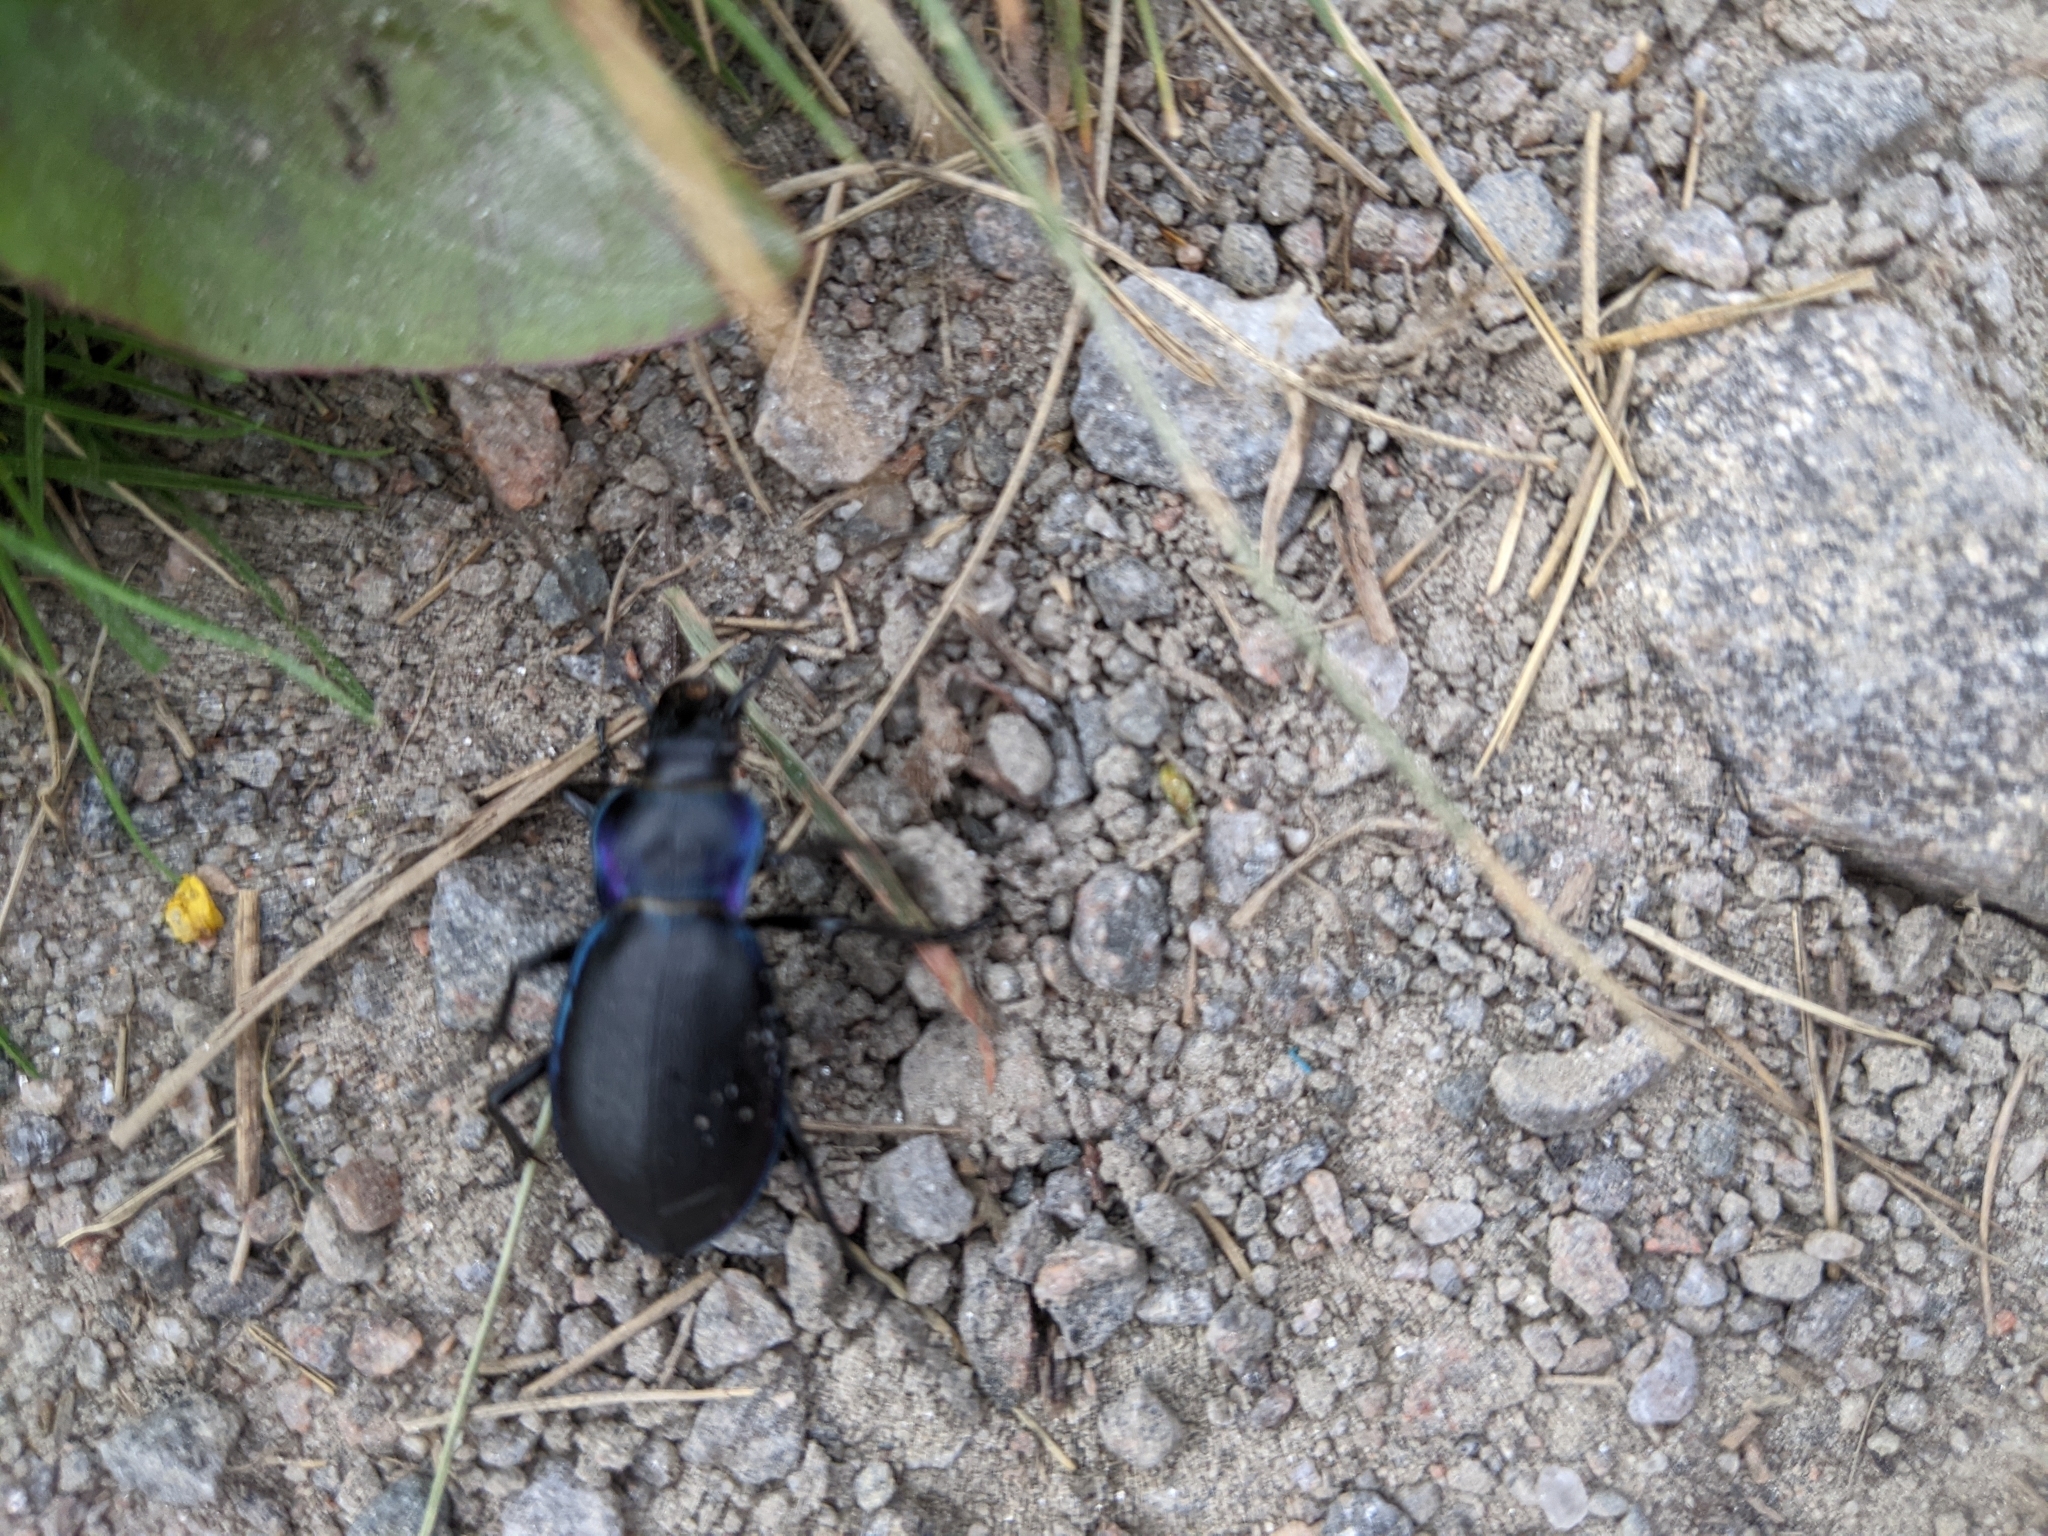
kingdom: Animalia
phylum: Arthropoda
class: Insecta
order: Coleoptera
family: Carabidae
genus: Carabus
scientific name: Carabus violaceus
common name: Violet ground beetle
